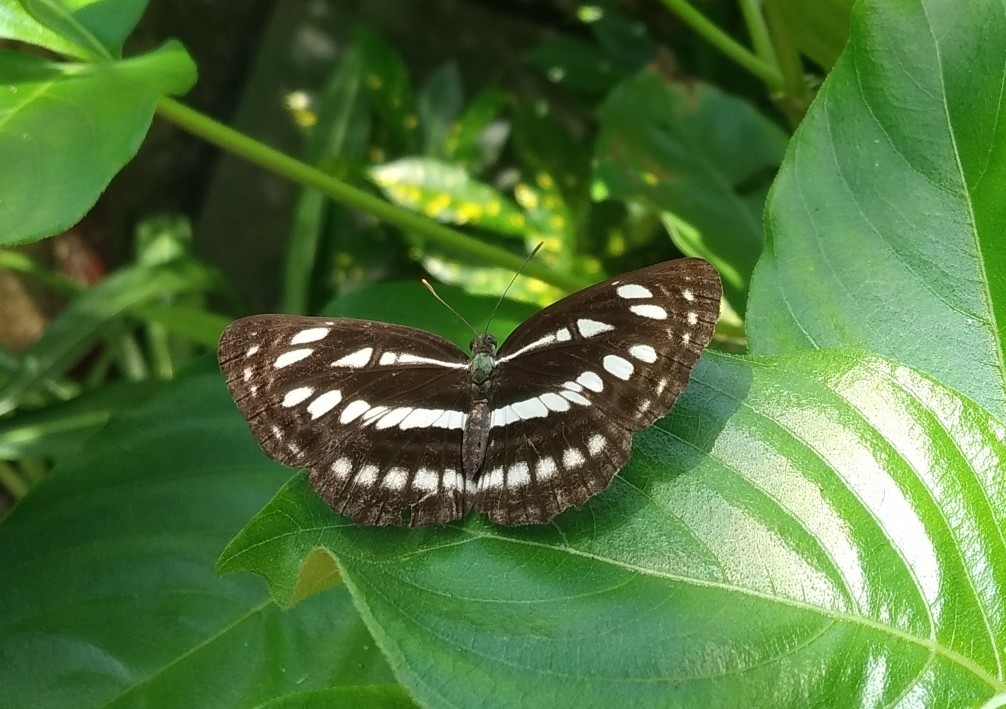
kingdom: Animalia
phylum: Arthropoda
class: Insecta
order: Lepidoptera
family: Nymphalidae
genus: Neptis
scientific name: Neptis hylas
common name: Common sailer
